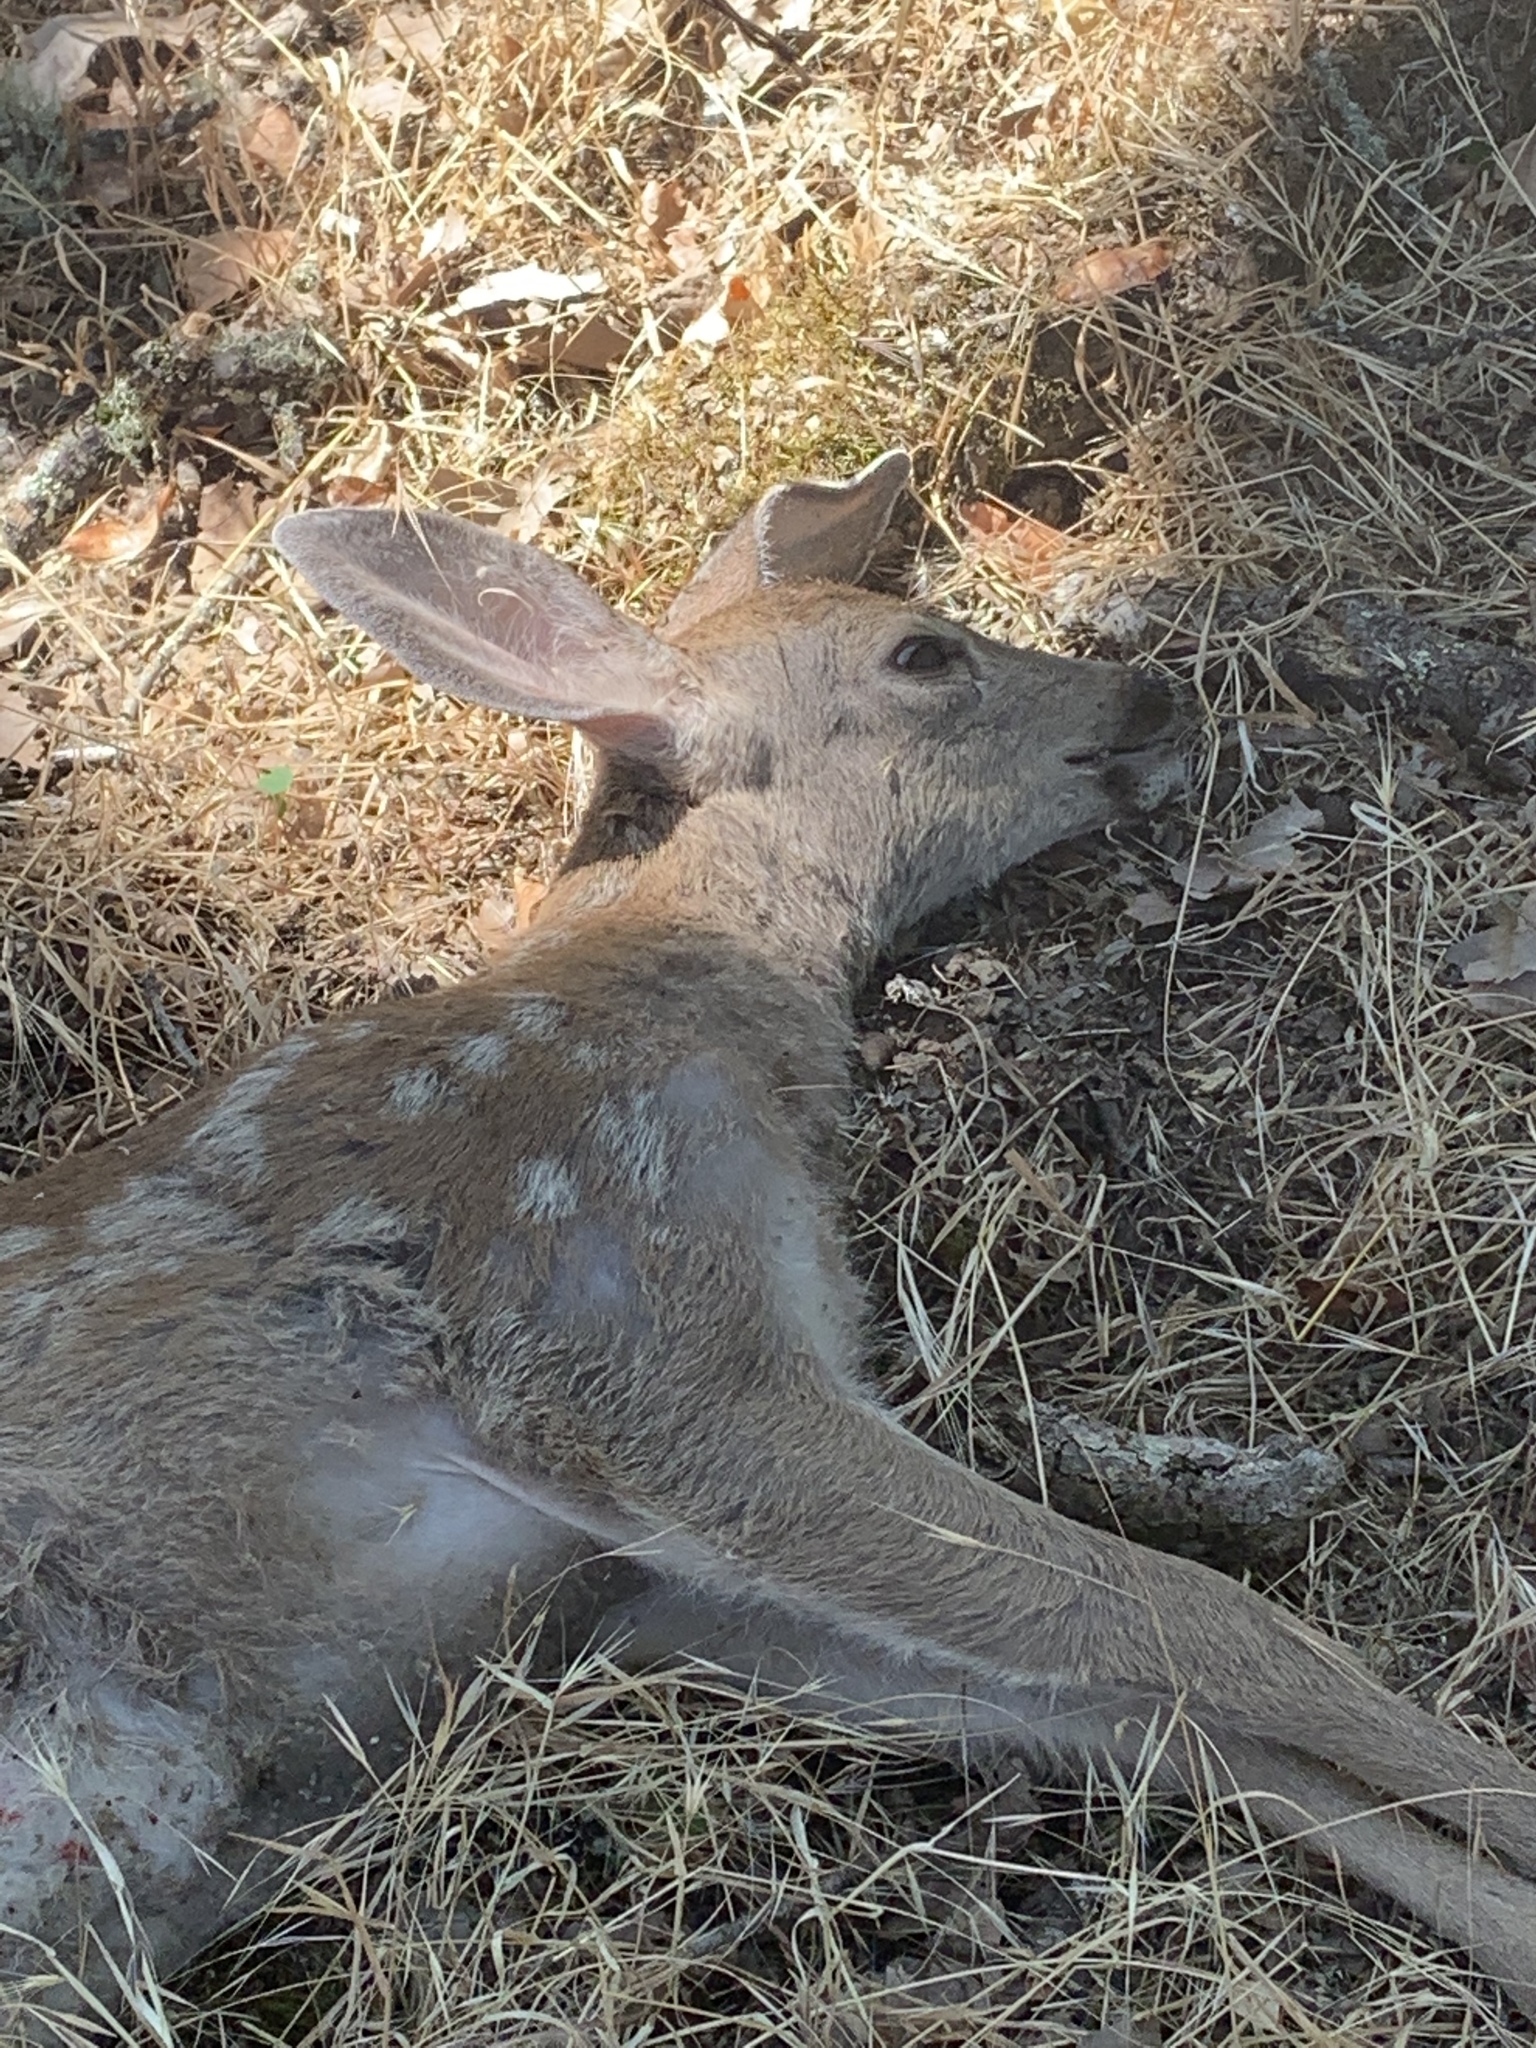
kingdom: Animalia
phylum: Chordata
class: Mammalia
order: Artiodactyla
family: Cervidae
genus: Odocoileus
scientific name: Odocoileus hemionus
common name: Mule deer
